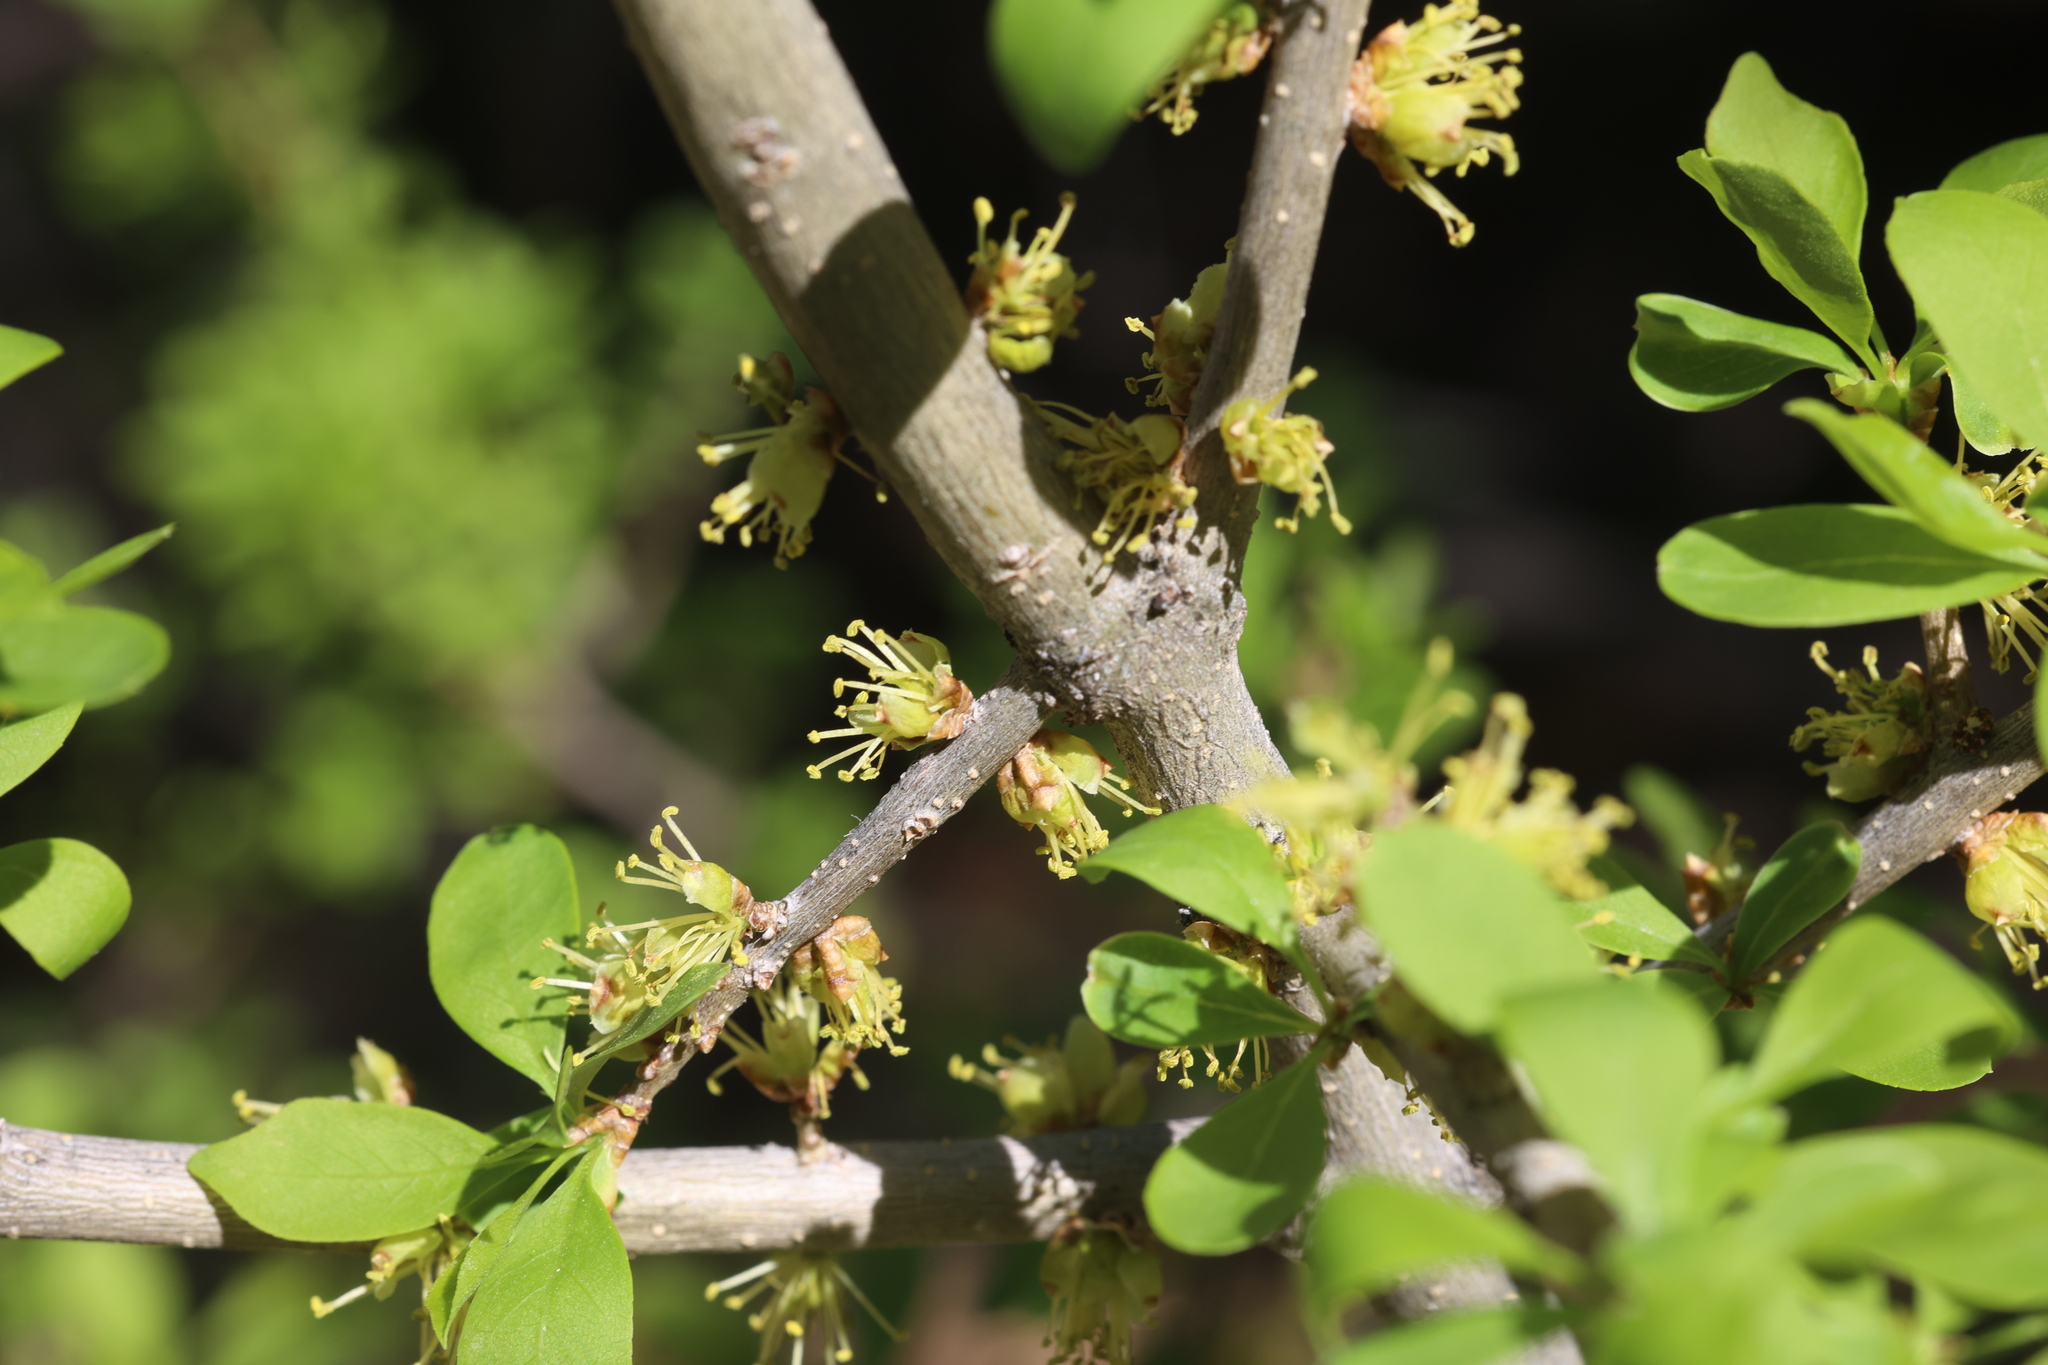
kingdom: Plantae
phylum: Tracheophyta
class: Magnoliopsida
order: Lamiales
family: Oleaceae
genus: Forestiera
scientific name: Forestiera pubescens
